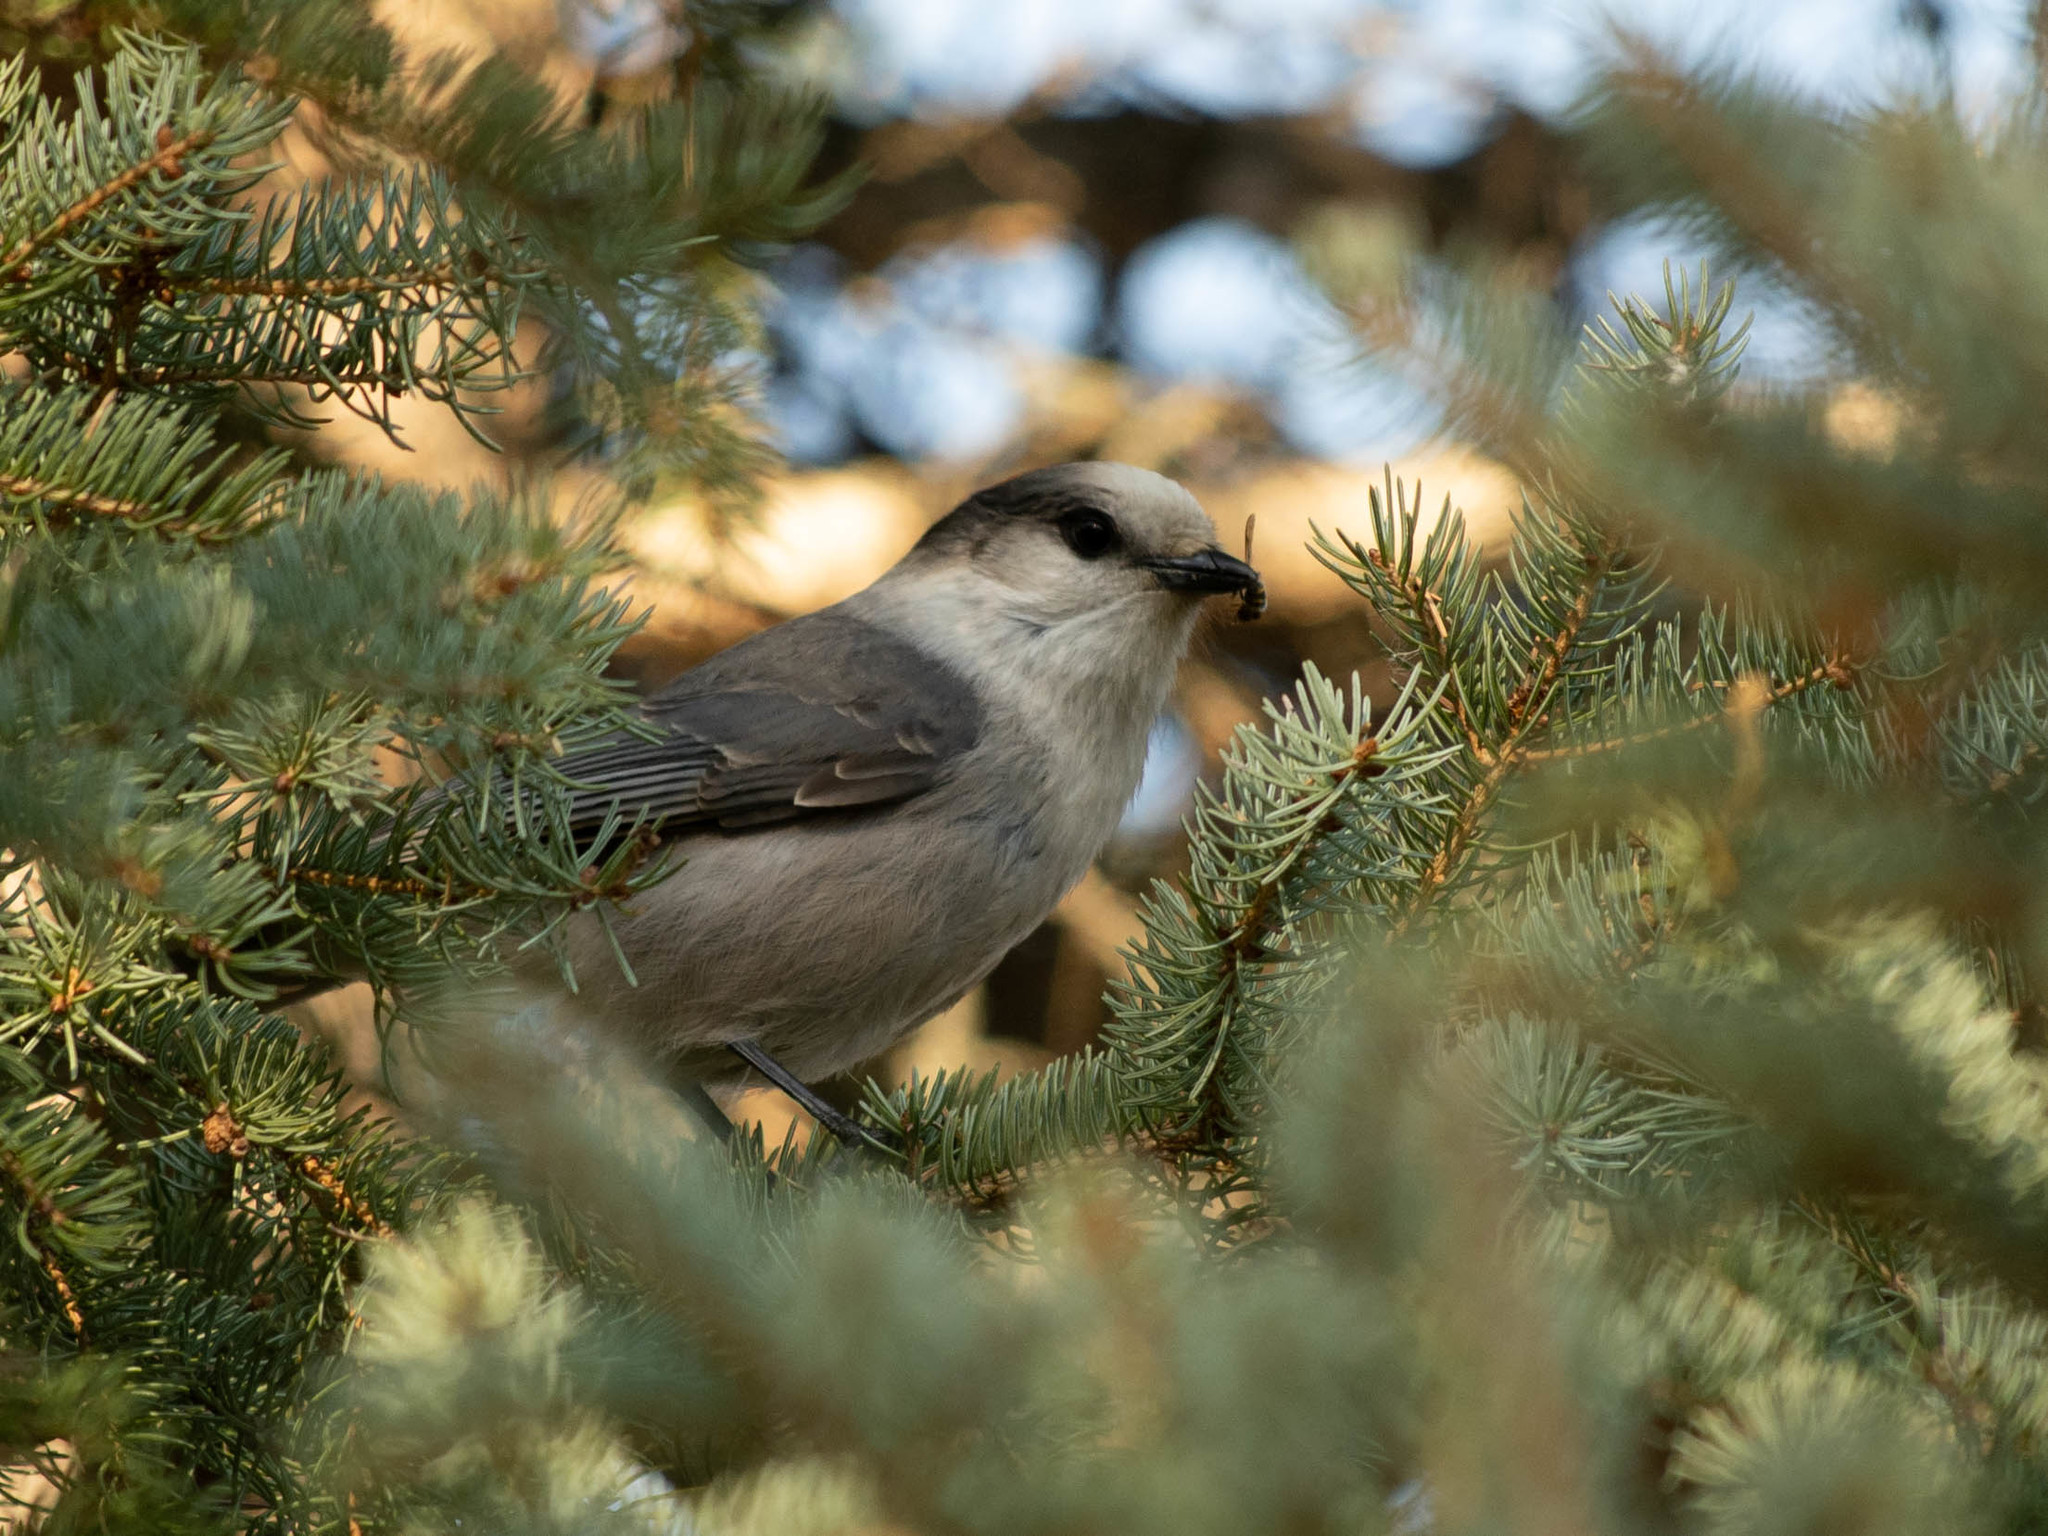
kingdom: Animalia
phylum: Chordata
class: Aves
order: Passeriformes
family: Corvidae
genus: Perisoreus
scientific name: Perisoreus canadensis
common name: Gray jay
